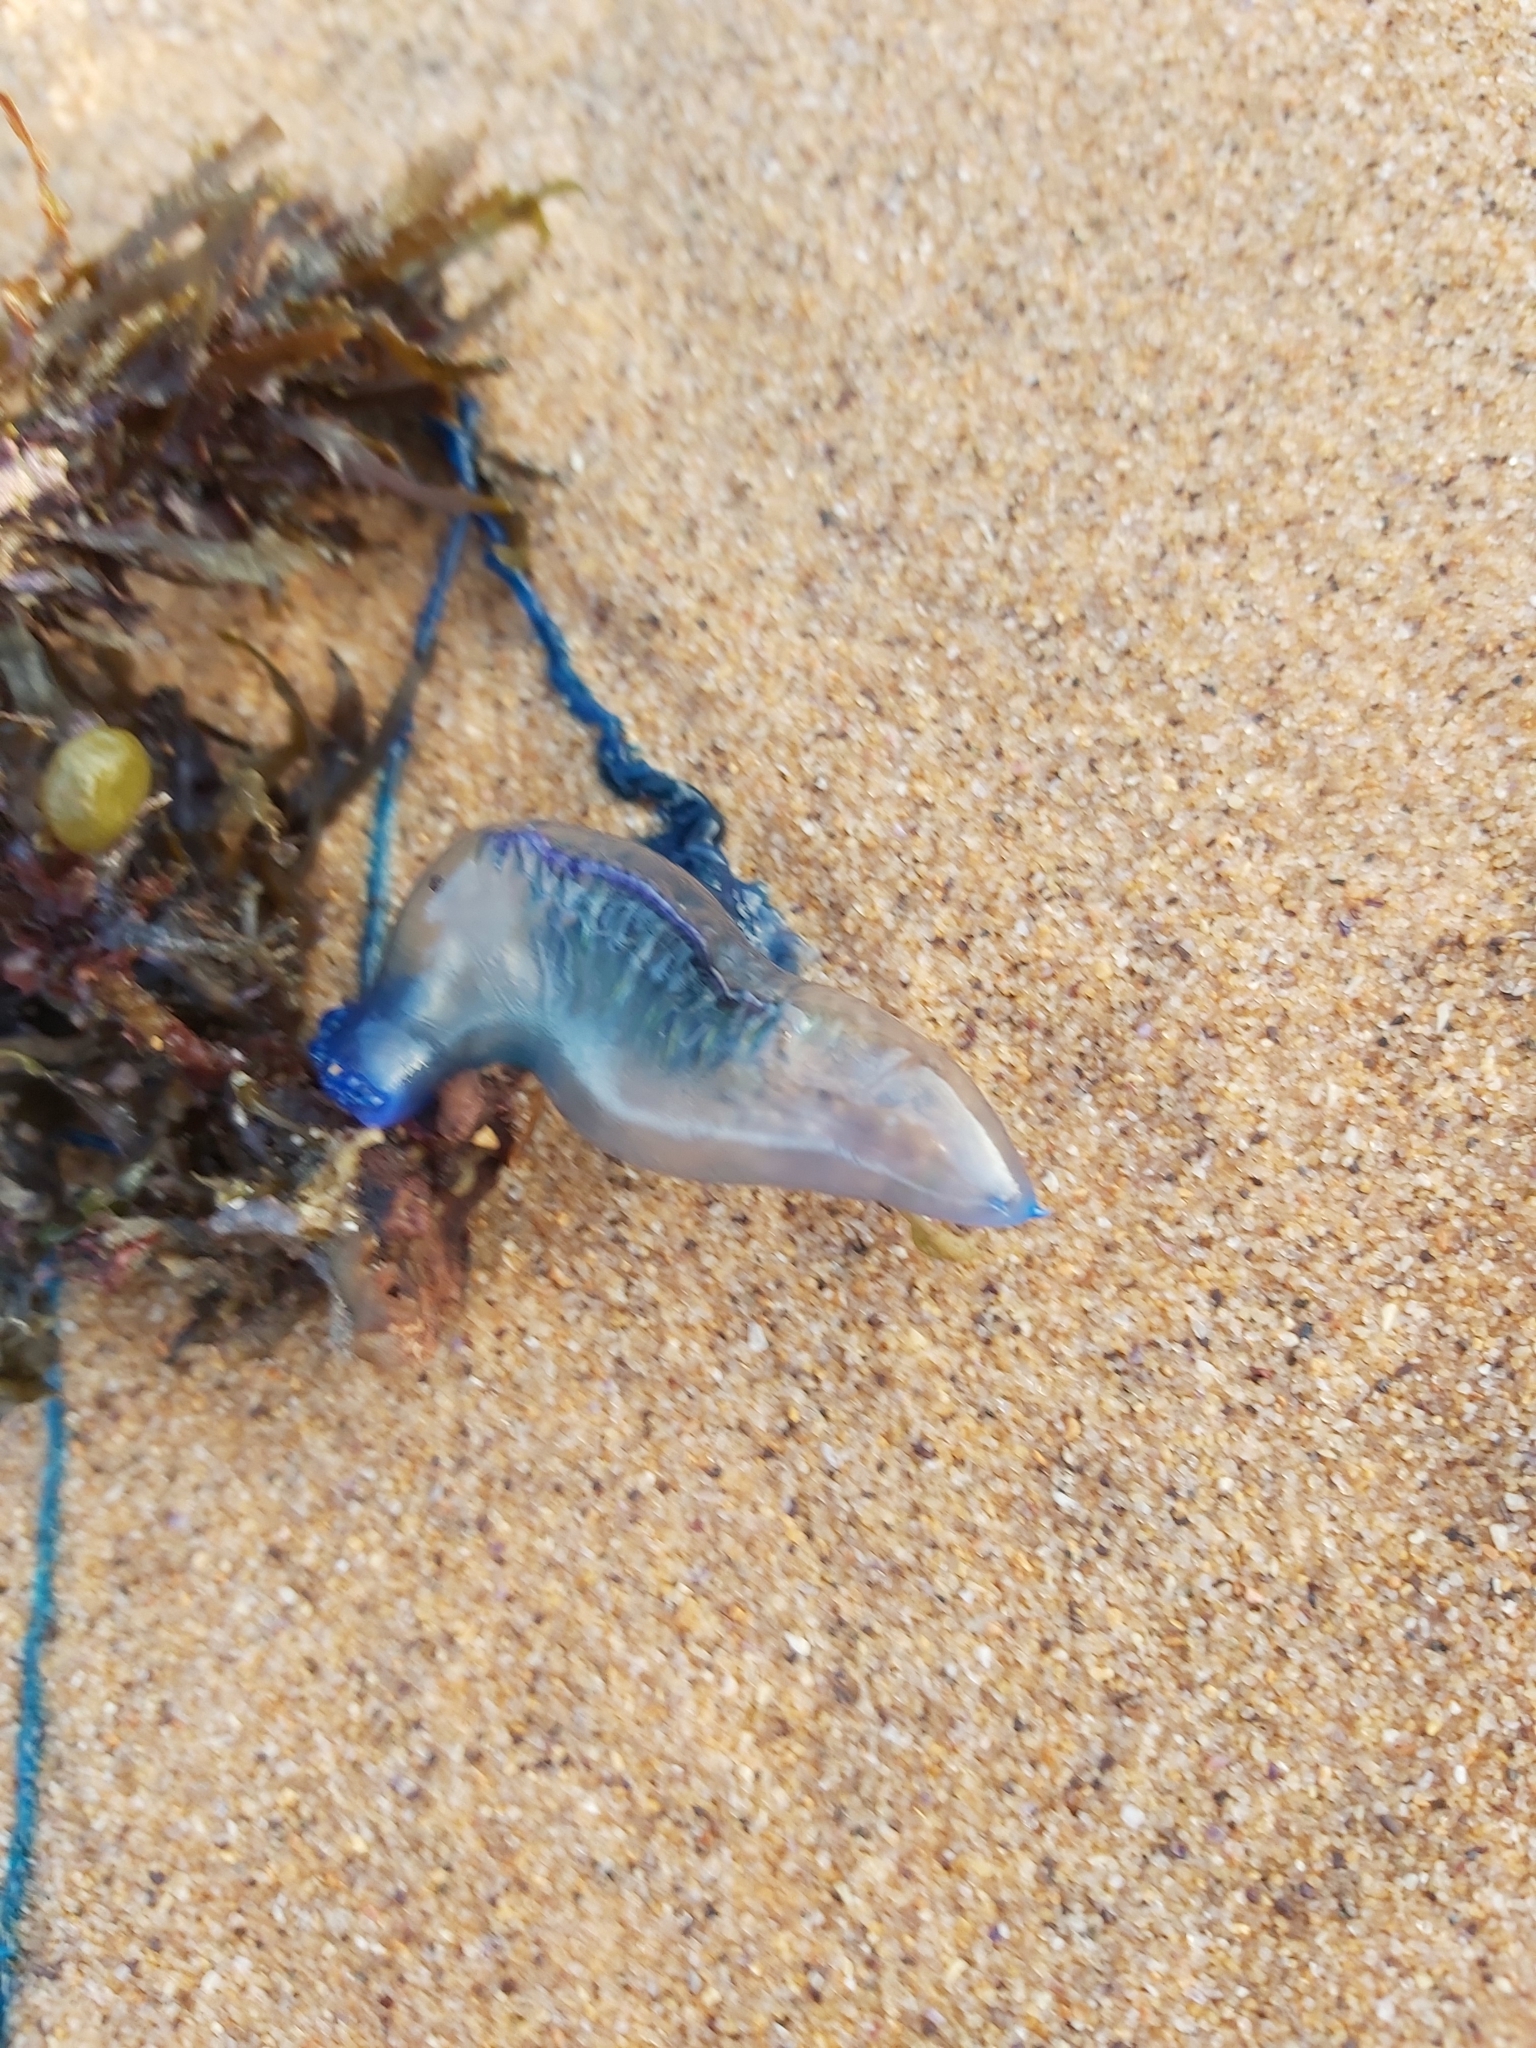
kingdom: Animalia
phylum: Cnidaria
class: Hydrozoa
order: Siphonophorae
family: Physaliidae
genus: Physalia
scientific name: Physalia physalis
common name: Portuguese man-of-war
